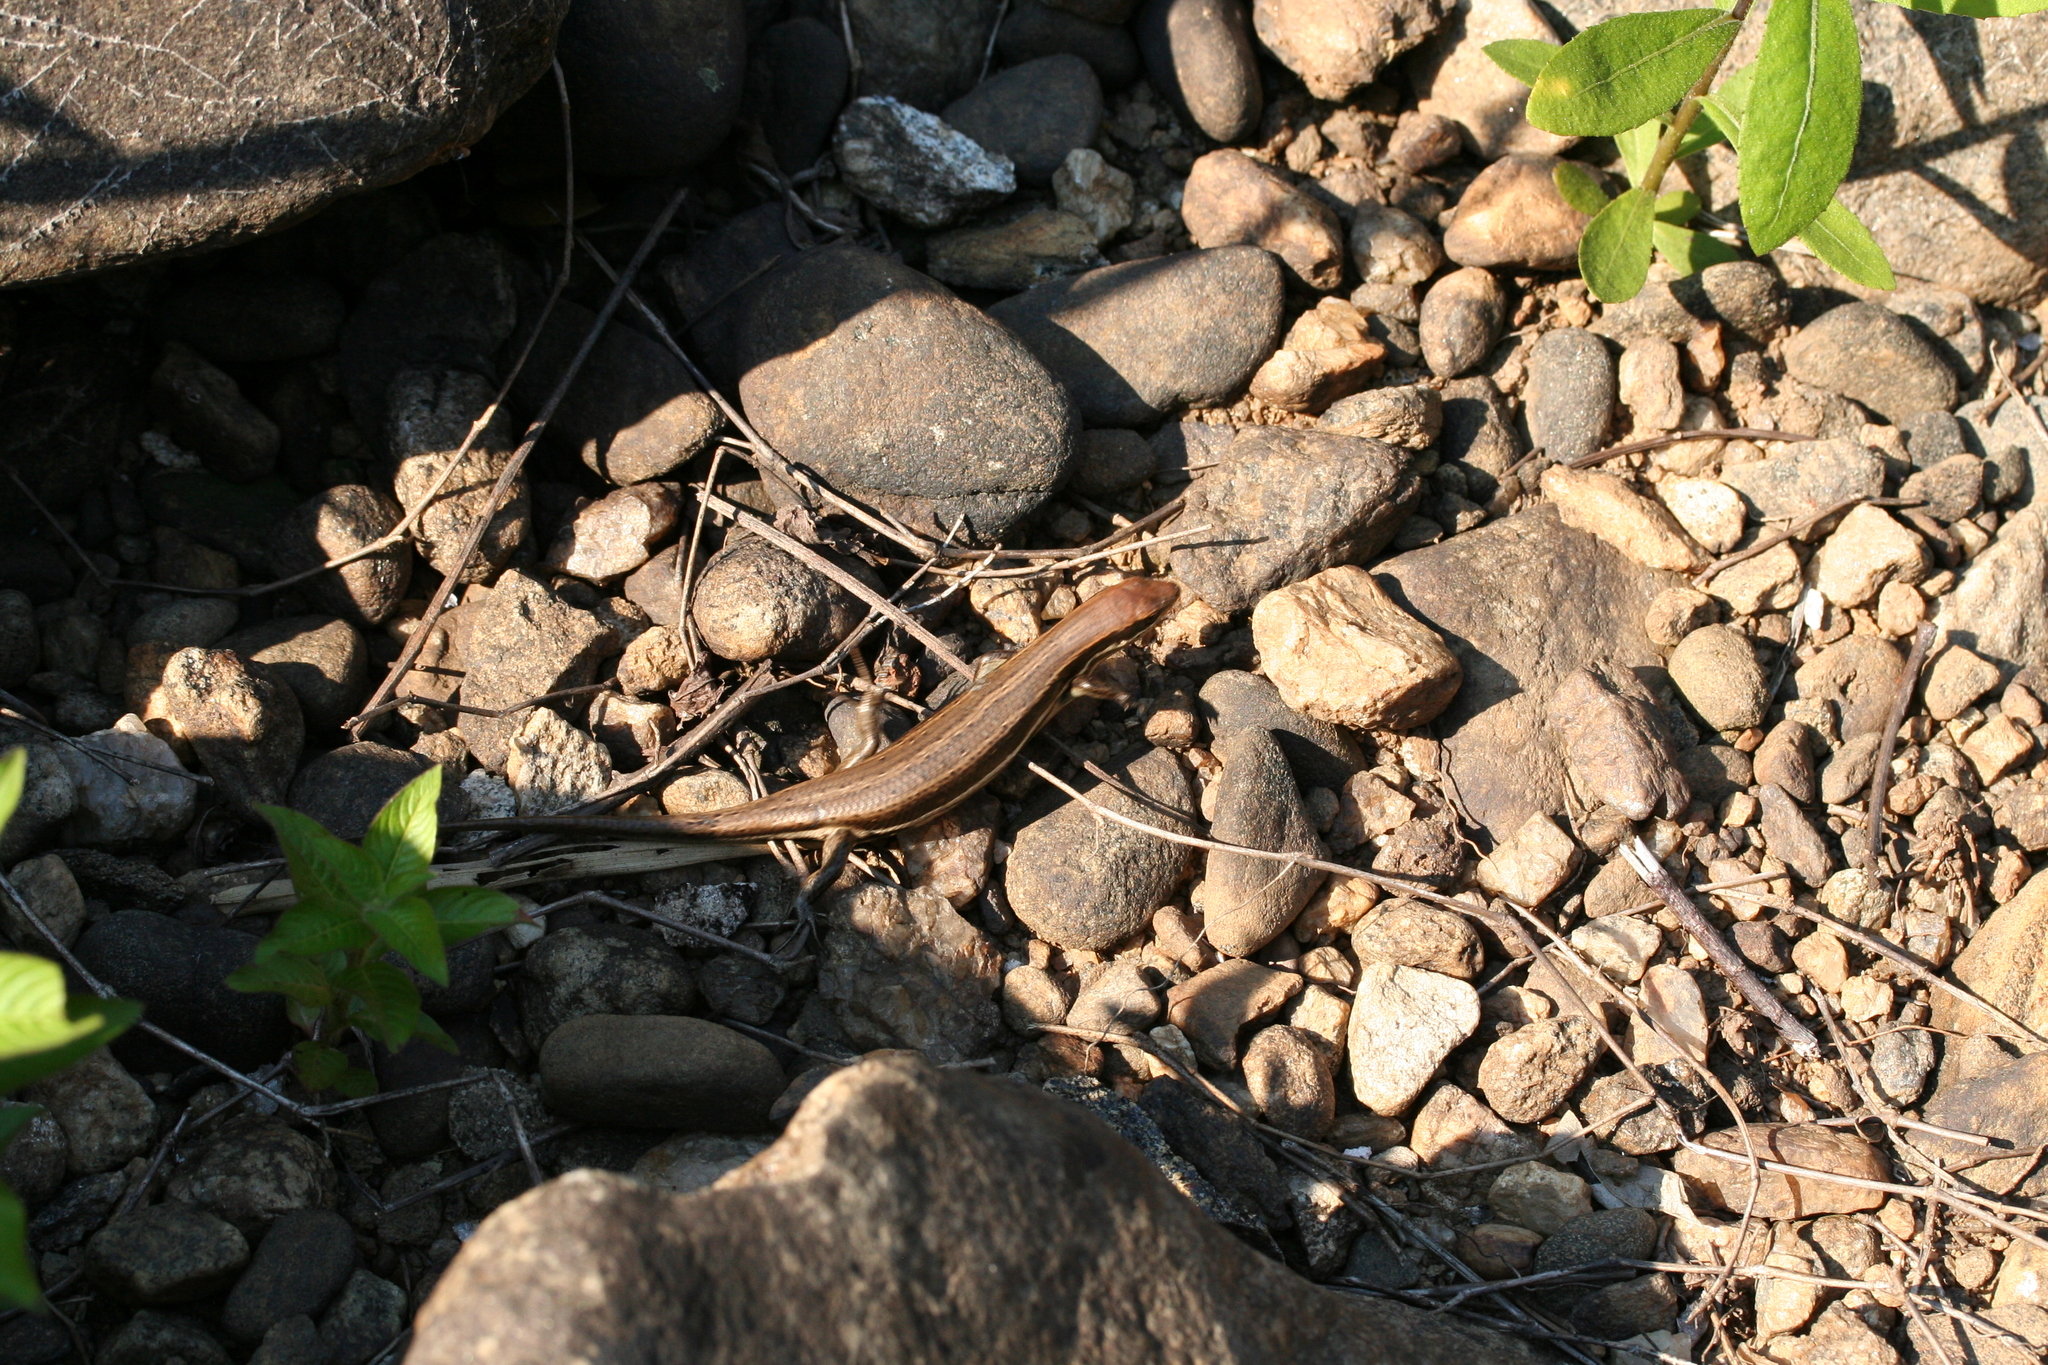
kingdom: Animalia
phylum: Chordata
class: Squamata
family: Scincidae
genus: Trachylepis
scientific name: Trachylepis gravenhorstii
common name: Gravenhorst's mabuya
